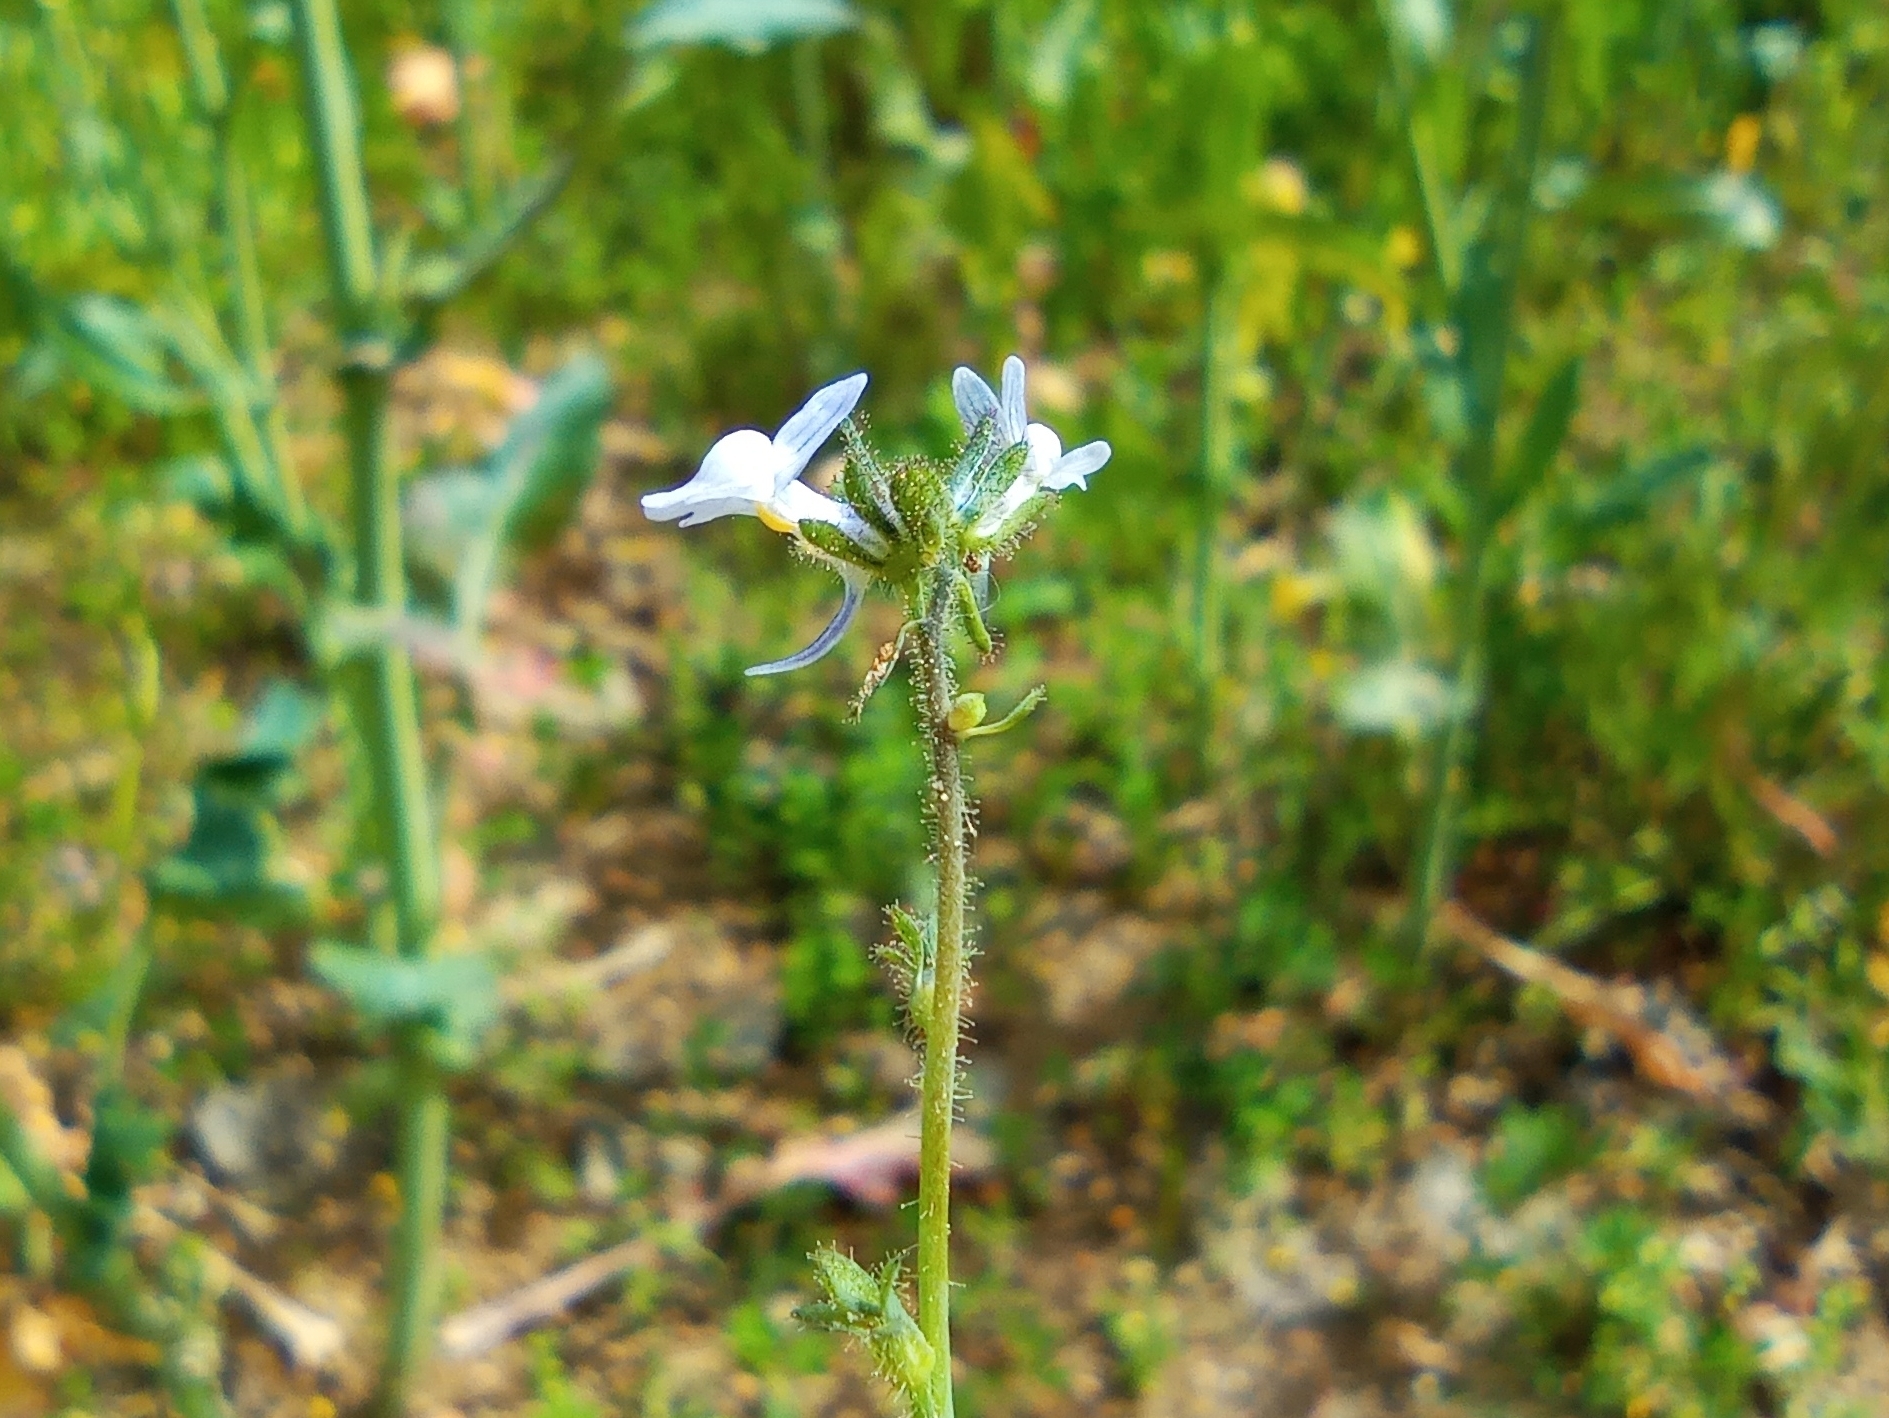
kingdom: Plantae
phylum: Tracheophyta
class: Magnoliopsida
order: Lamiales
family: Plantaginaceae
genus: Linaria
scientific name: Linaria arvensis
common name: Corn toadflax
